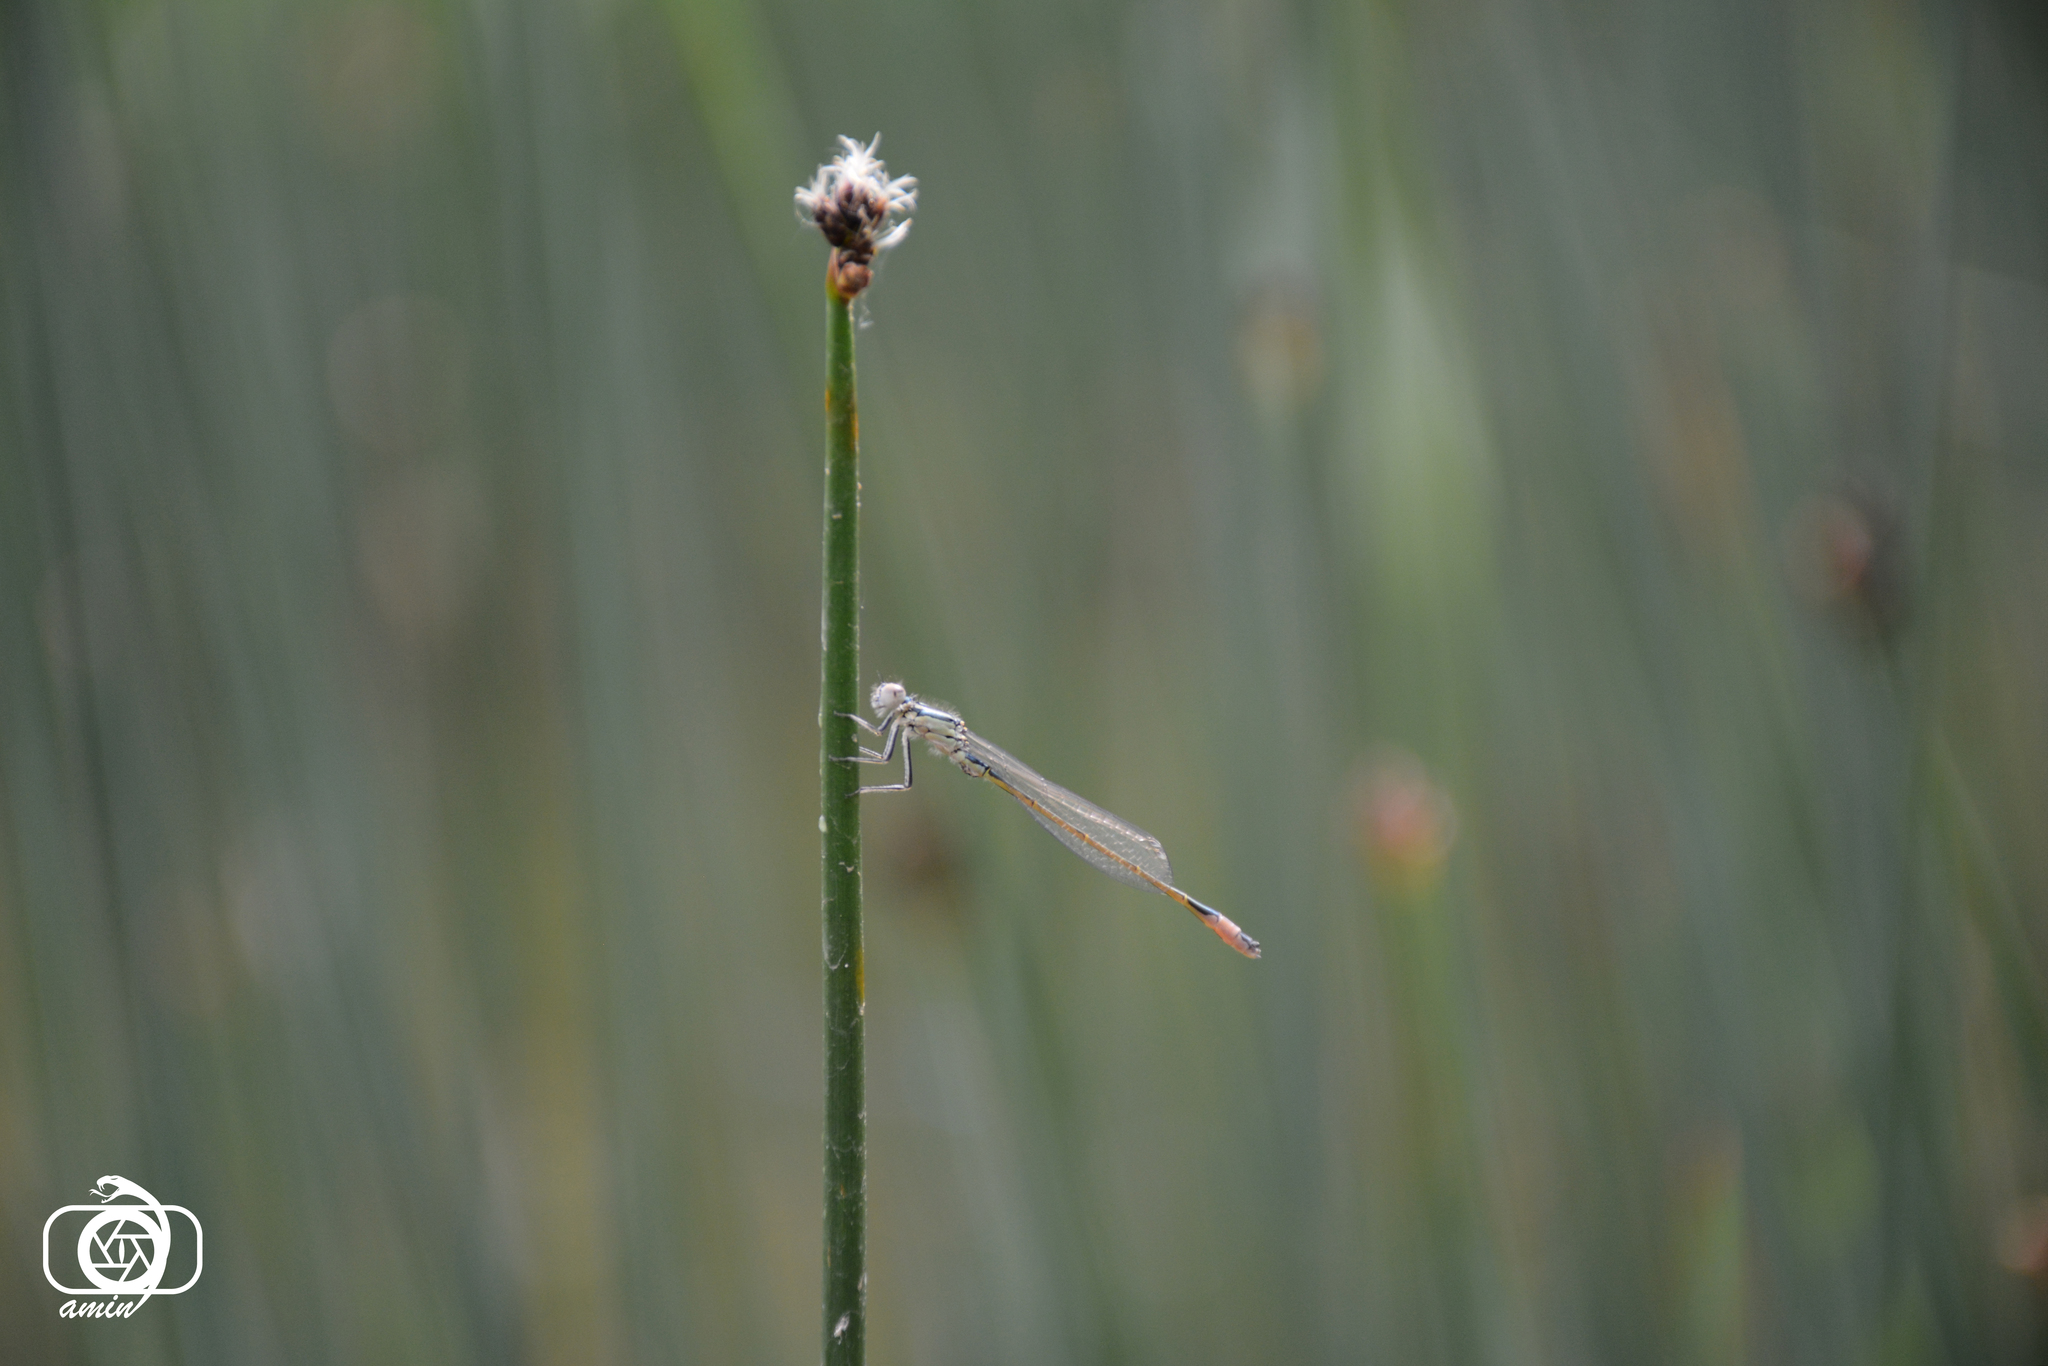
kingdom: Animalia
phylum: Arthropoda
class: Insecta
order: Odonata
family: Coenagrionidae
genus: Ischnura
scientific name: Ischnura elegans
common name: Blue-tailed damselfly
